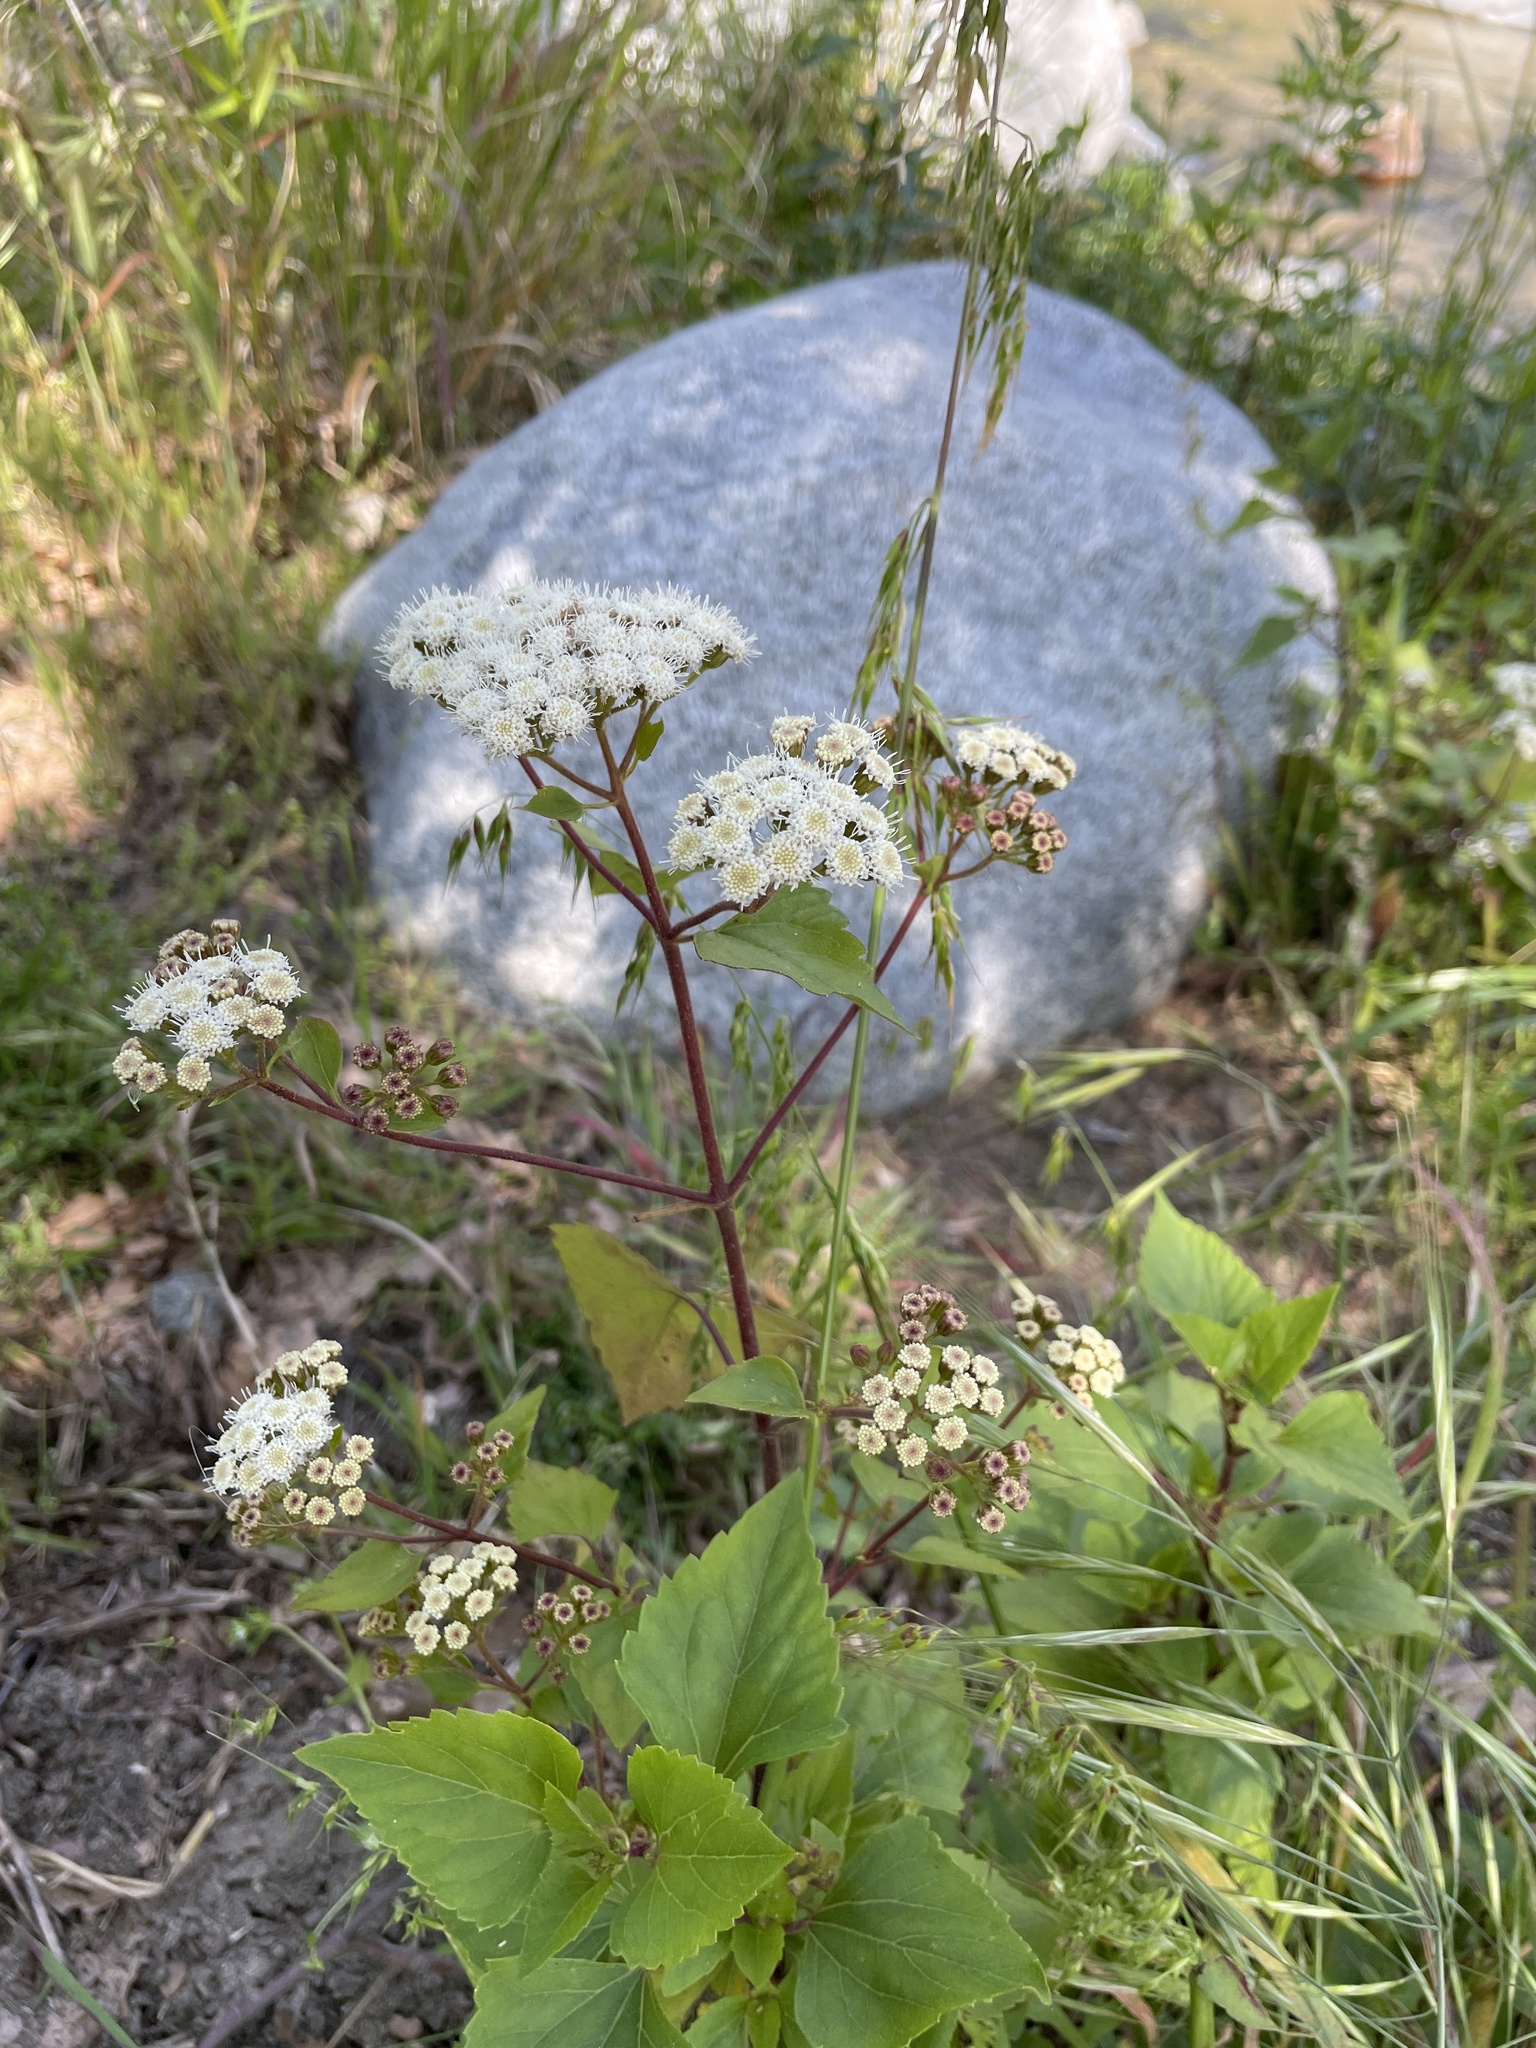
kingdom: Plantae
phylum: Tracheophyta
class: Magnoliopsida
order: Asterales
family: Asteraceae
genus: Ageratina
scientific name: Ageratina adenophora
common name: Sticky snakeroot
